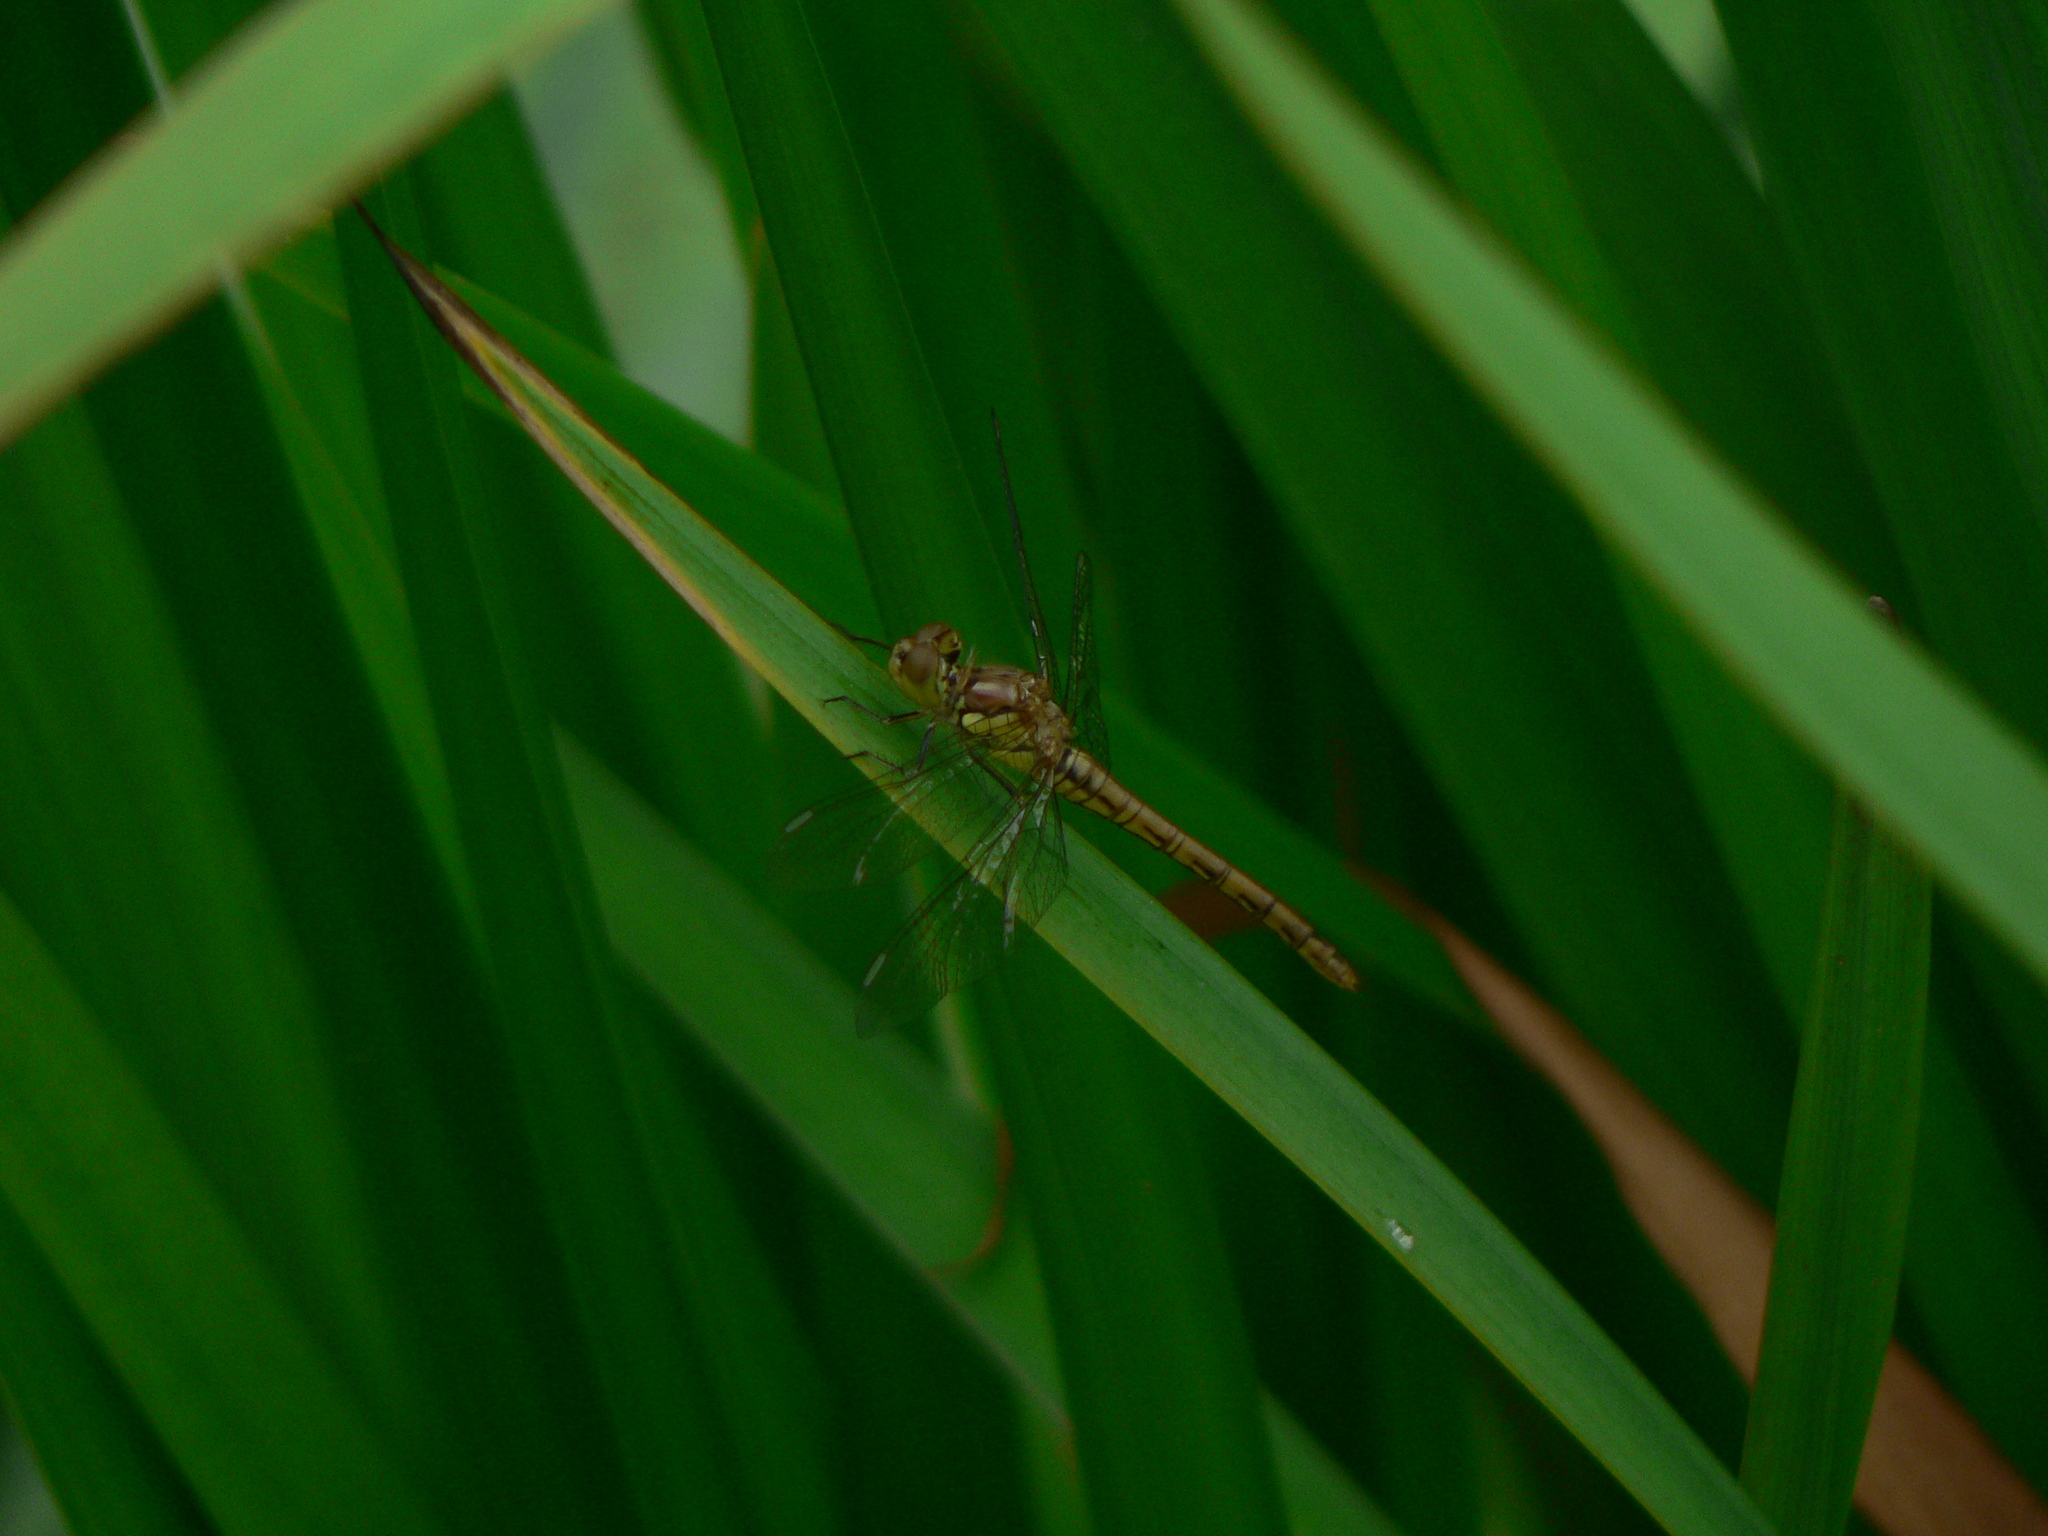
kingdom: Animalia
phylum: Arthropoda
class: Insecta
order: Odonata
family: Libellulidae
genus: Sympetrum
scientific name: Sympetrum striolatum
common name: Common darter
